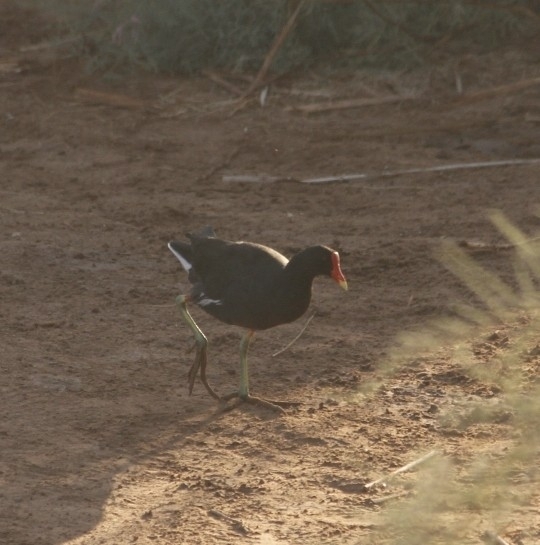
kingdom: Animalia
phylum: Chordata
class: Aves
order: Gruiformes
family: Rallidae
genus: Gallinula
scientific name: Gallinula chloropus
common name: Common moorhen
